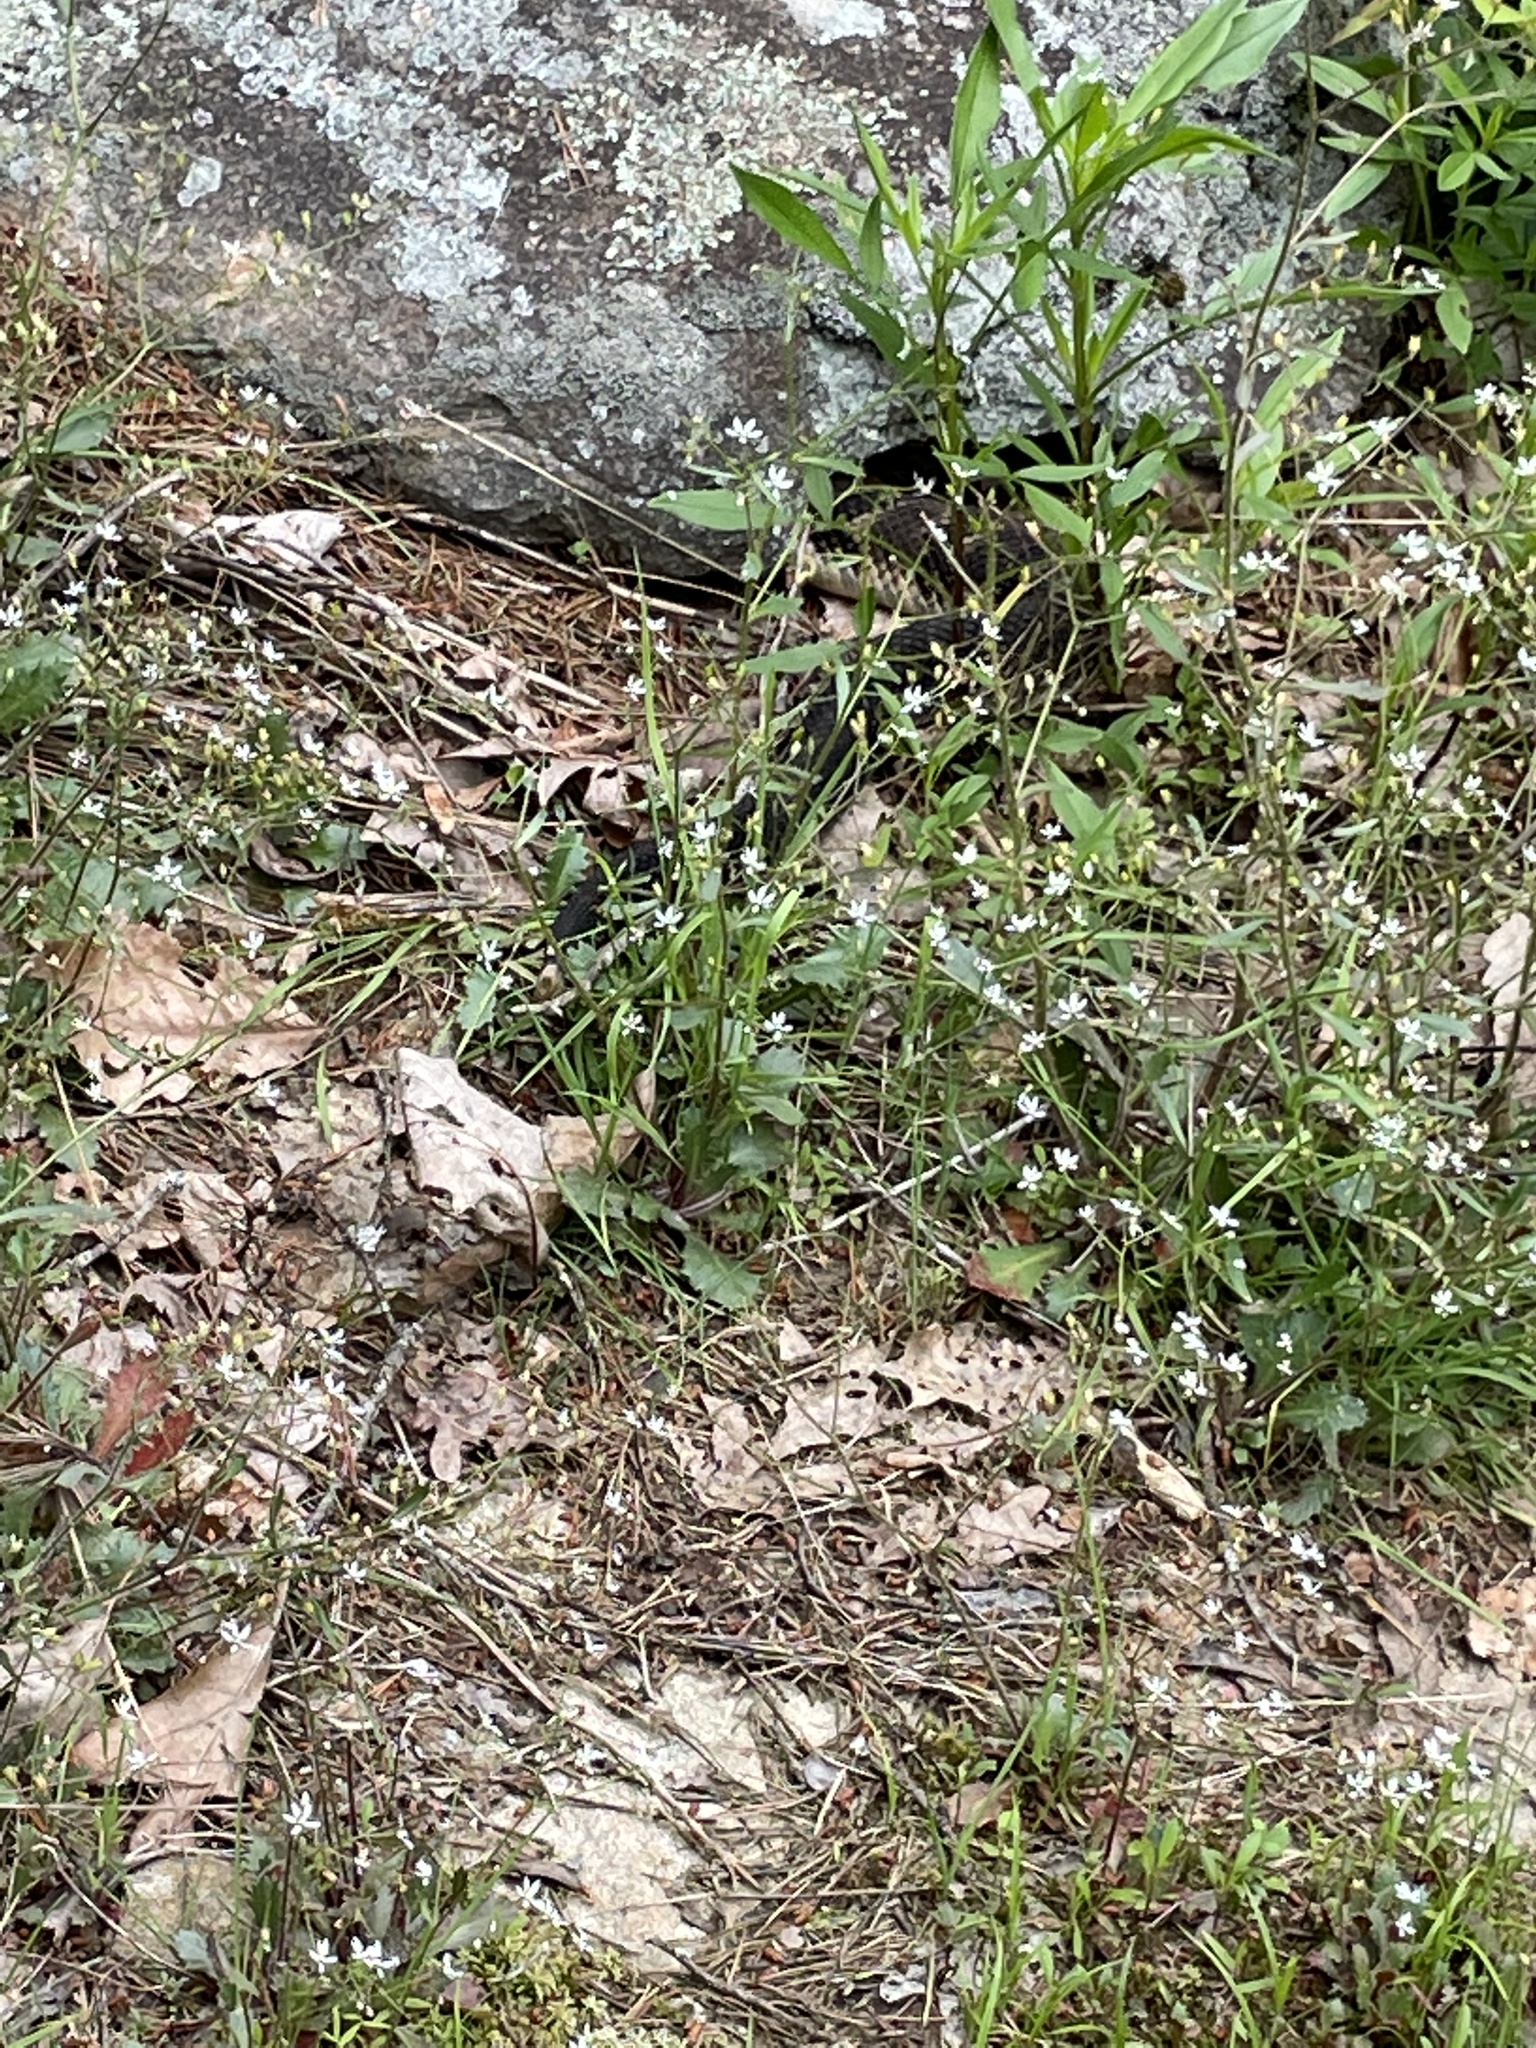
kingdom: Animalia
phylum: Chordata
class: Squamata
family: Viperidae
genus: Crotalus
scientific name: Crotalus horridus
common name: Timber rattlesnake
